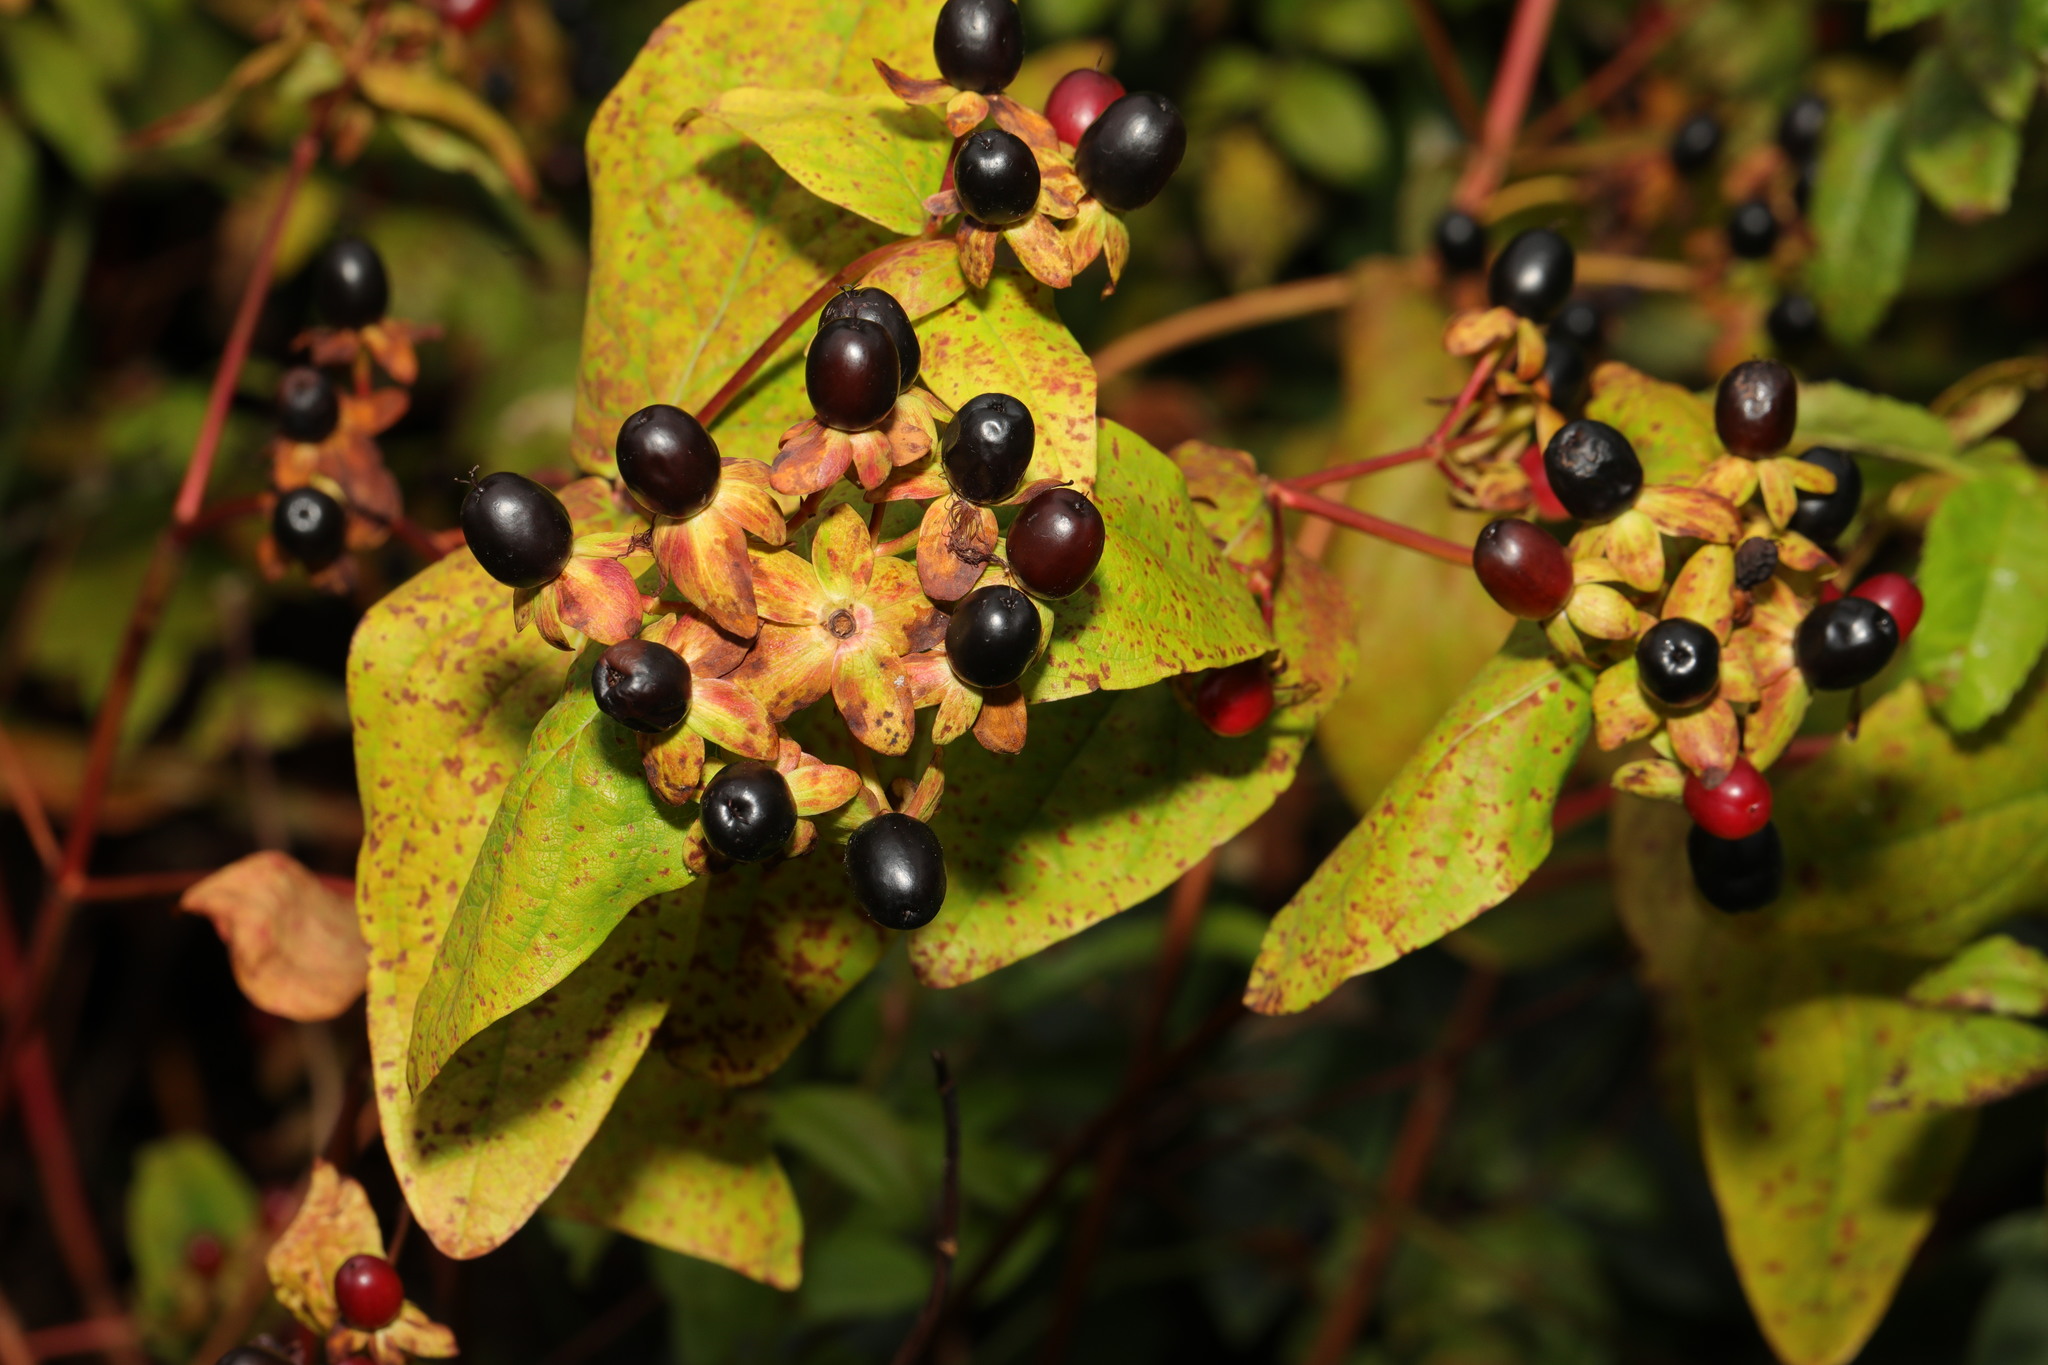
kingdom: Plantae
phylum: Tracheophyta
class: Magnoliopsida
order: Malpighiales
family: Hypericaceae
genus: Hypericum
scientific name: Hypericum androsaemum
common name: Sweet-amber
